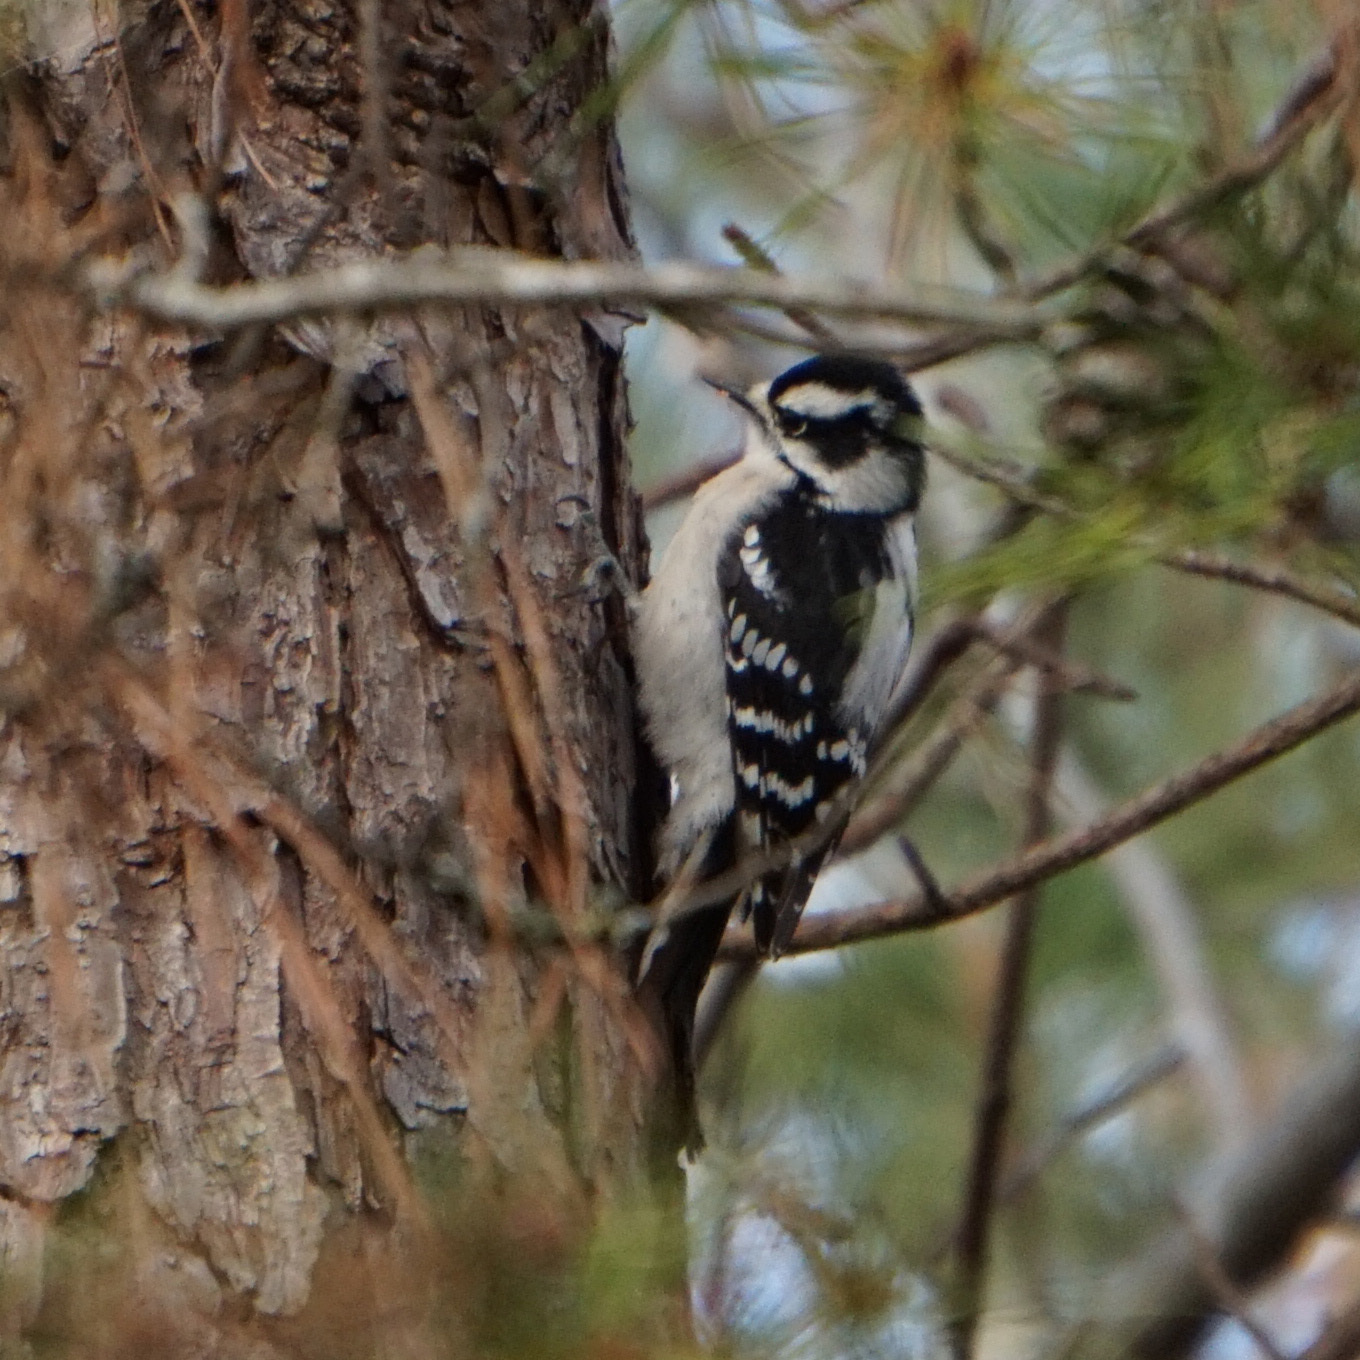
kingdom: Animalia
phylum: Chordata
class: Aves
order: Piciformes
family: Picidae
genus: Dryobates
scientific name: Dryobates pubescens
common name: Downy woodpecker
